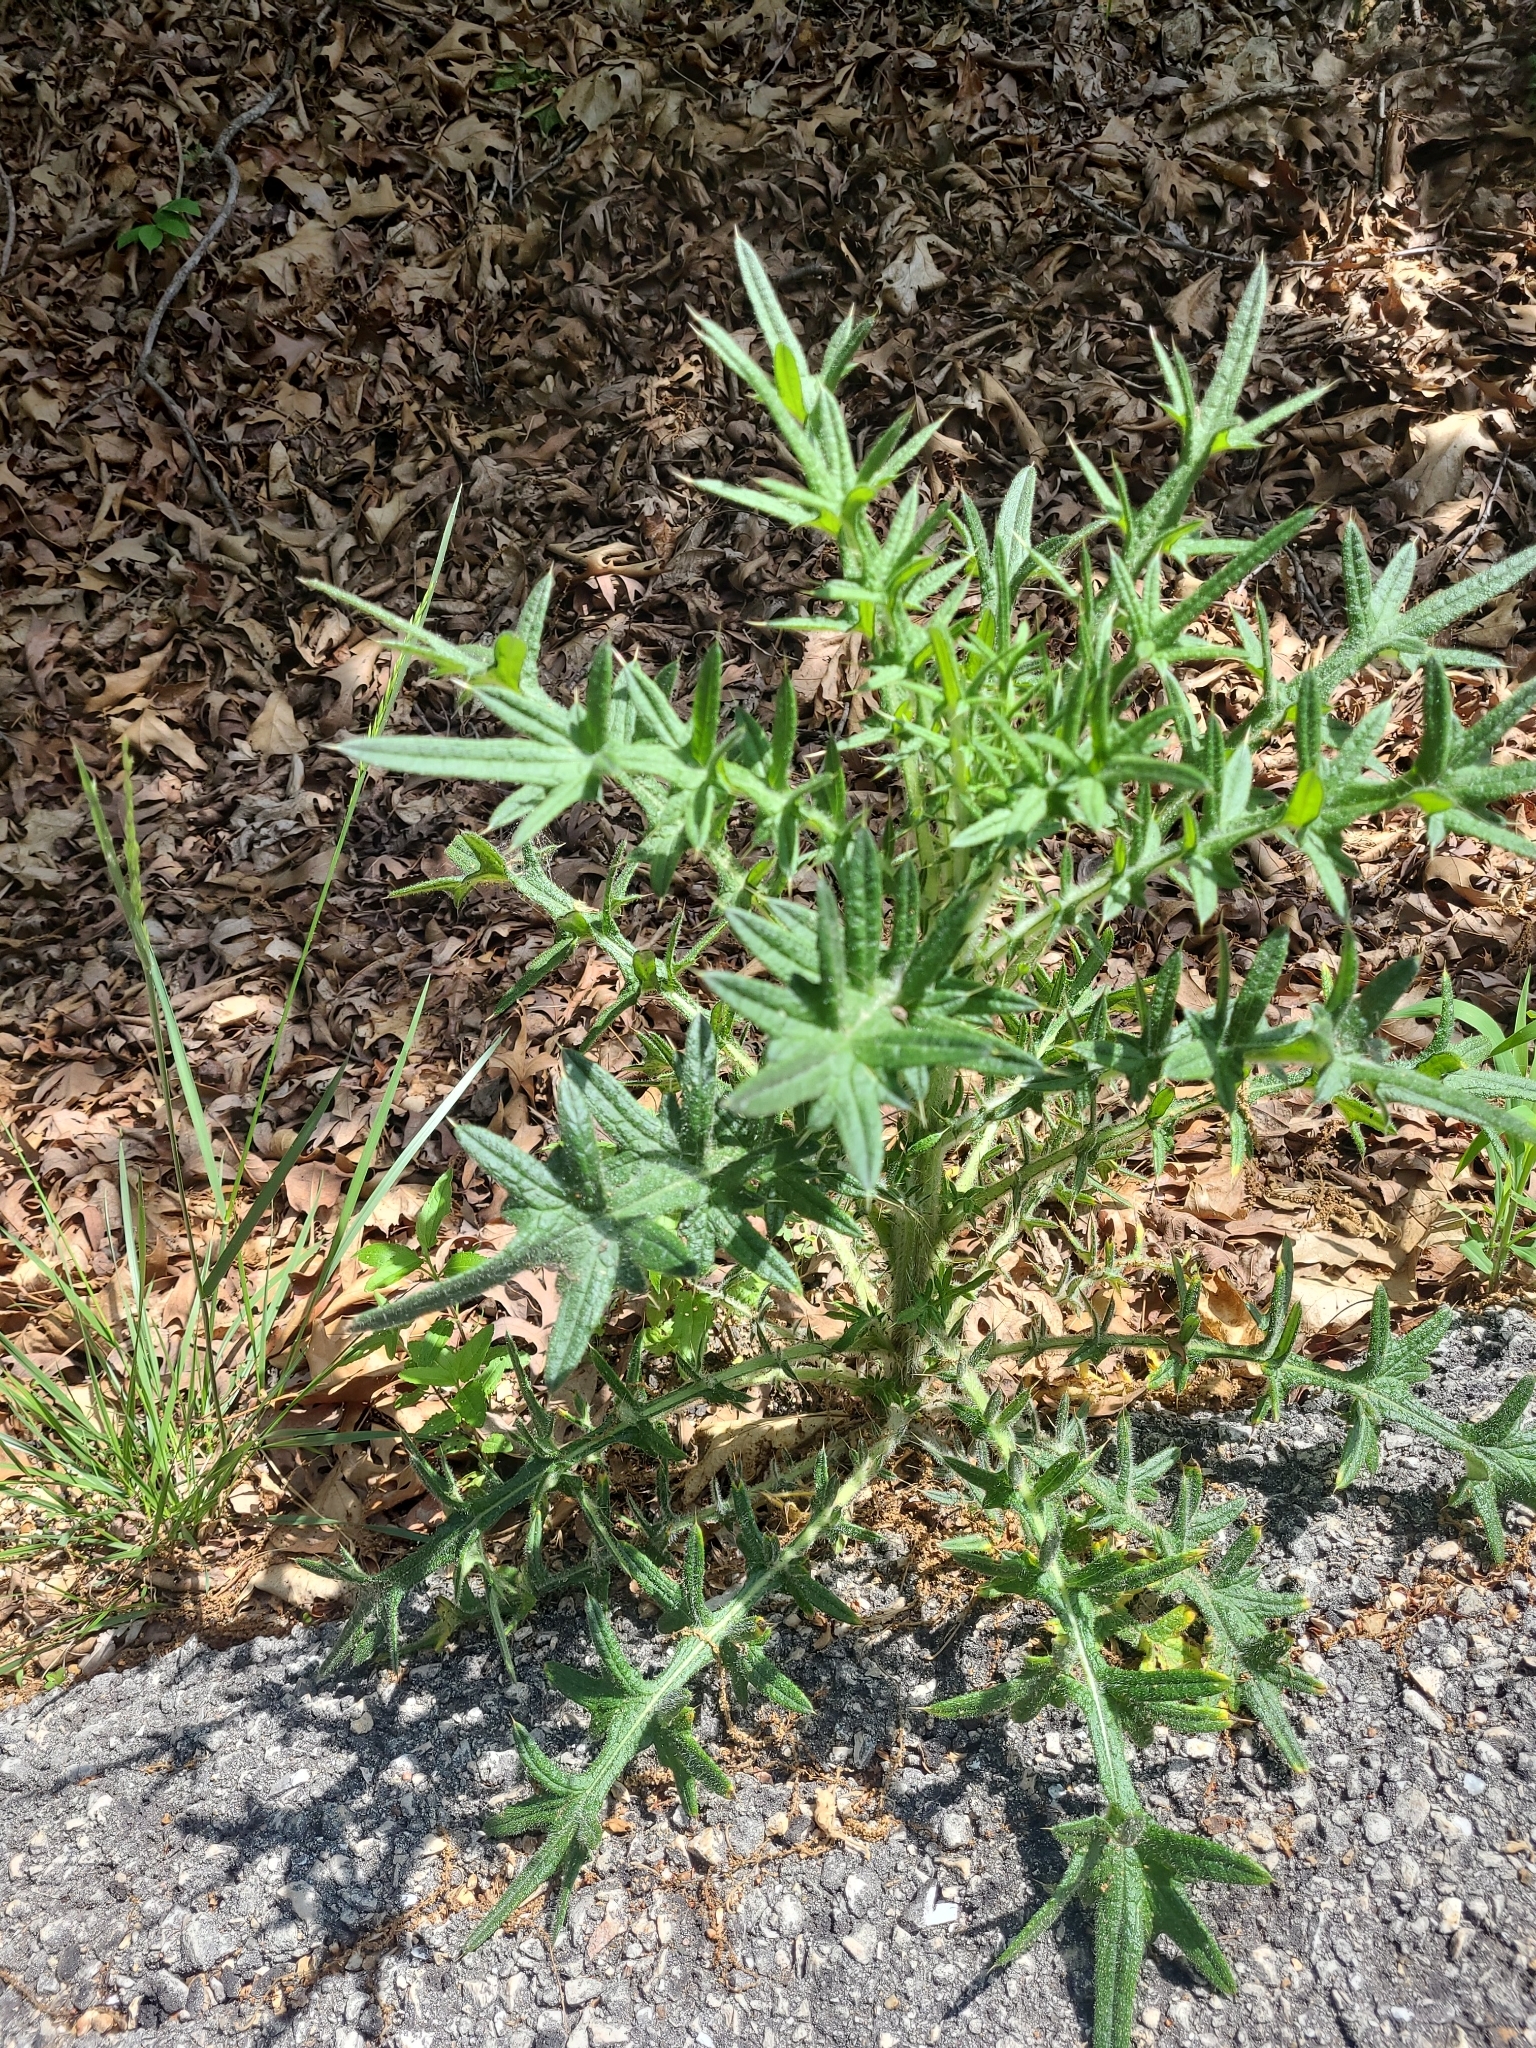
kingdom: Plantae
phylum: Tracheophyta
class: Magnoliopsida
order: Asterales
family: Asteraceae
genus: Cirsium
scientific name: Cirsium vulgare
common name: Bull thistle
